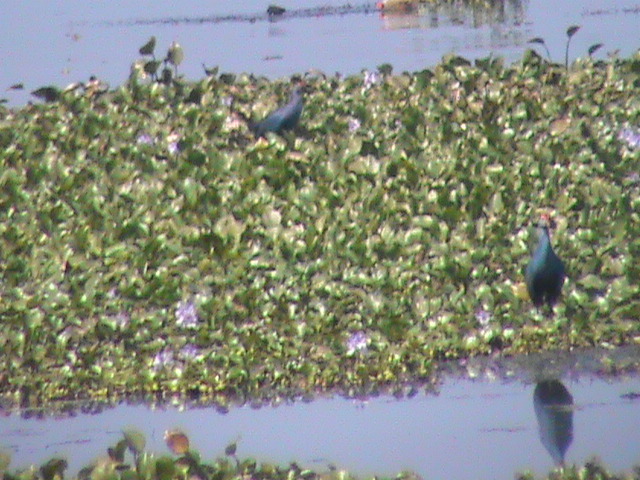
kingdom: Animalia
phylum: Chordata
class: Aves
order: Gruiformes
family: Rallidae
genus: Porphyrio
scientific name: Porphyrio porphyrio
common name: Purple swamphen
